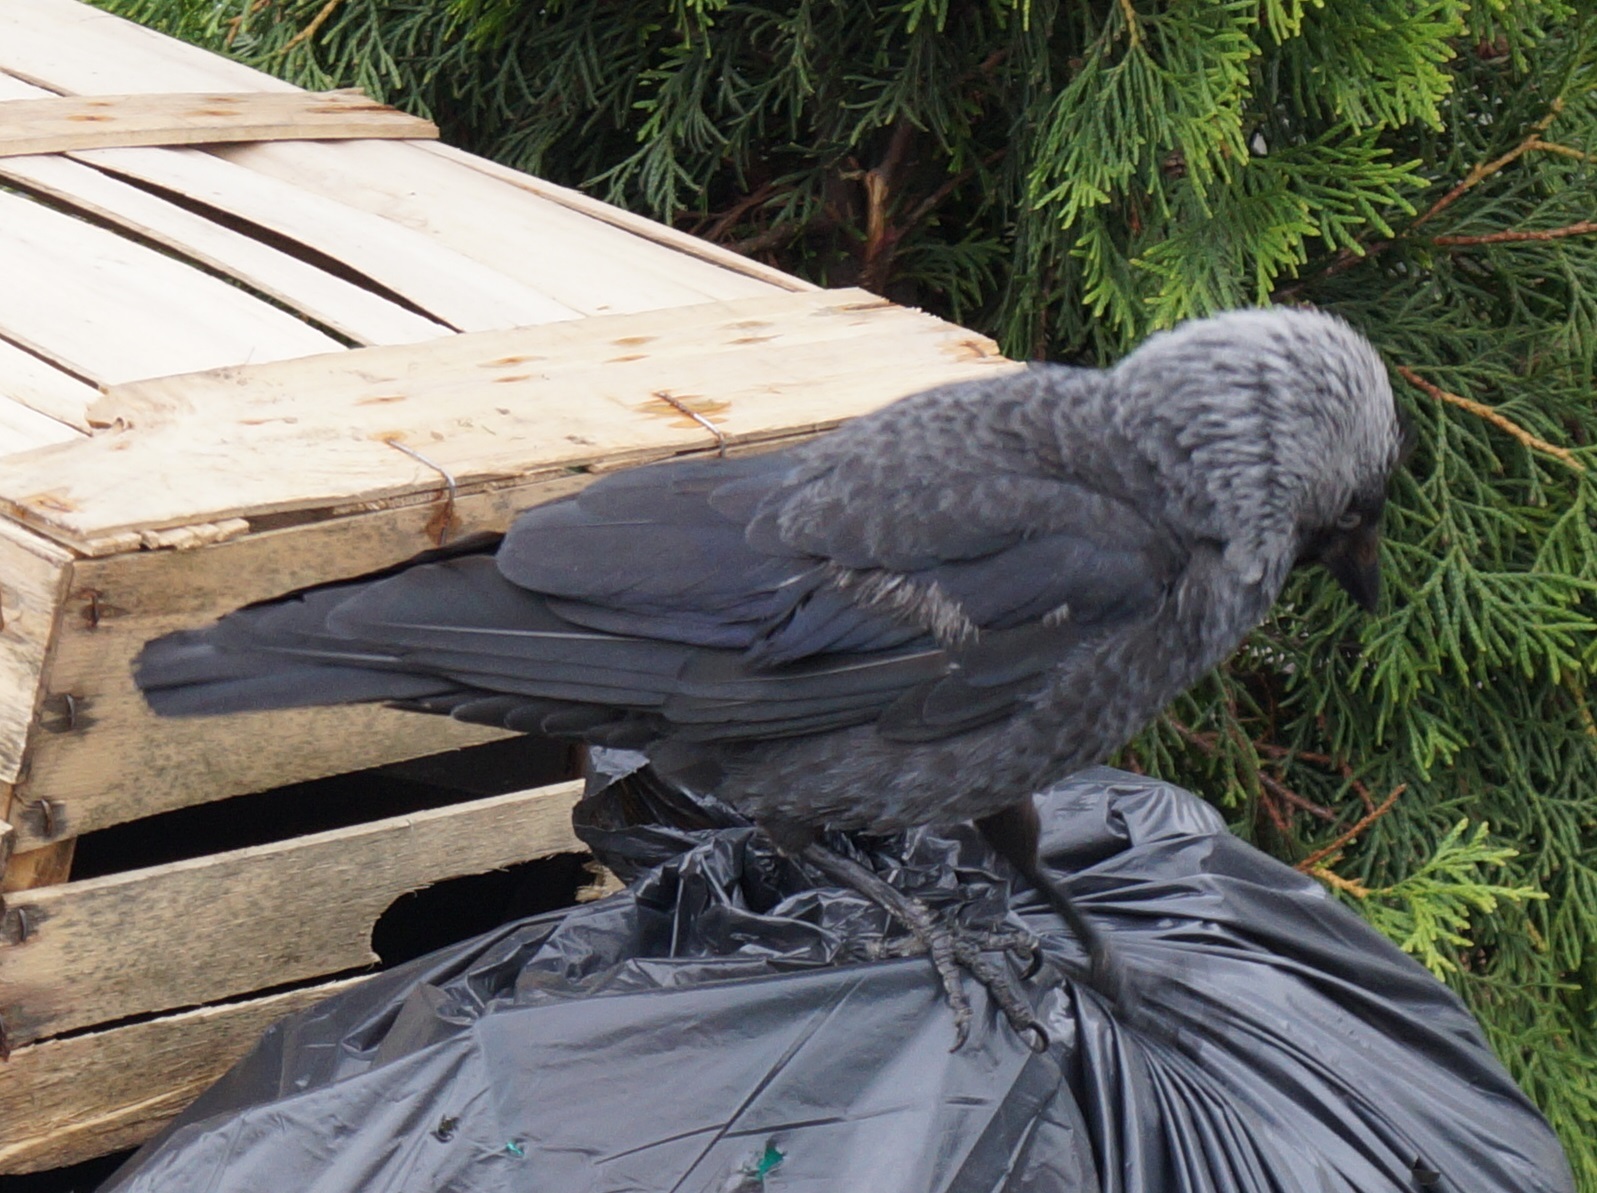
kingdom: Animalia
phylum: Chordata
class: Aves
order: Passeriformes
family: Corvidae
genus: Coloeus
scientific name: Coloeus monedula
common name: Western jackdaw
